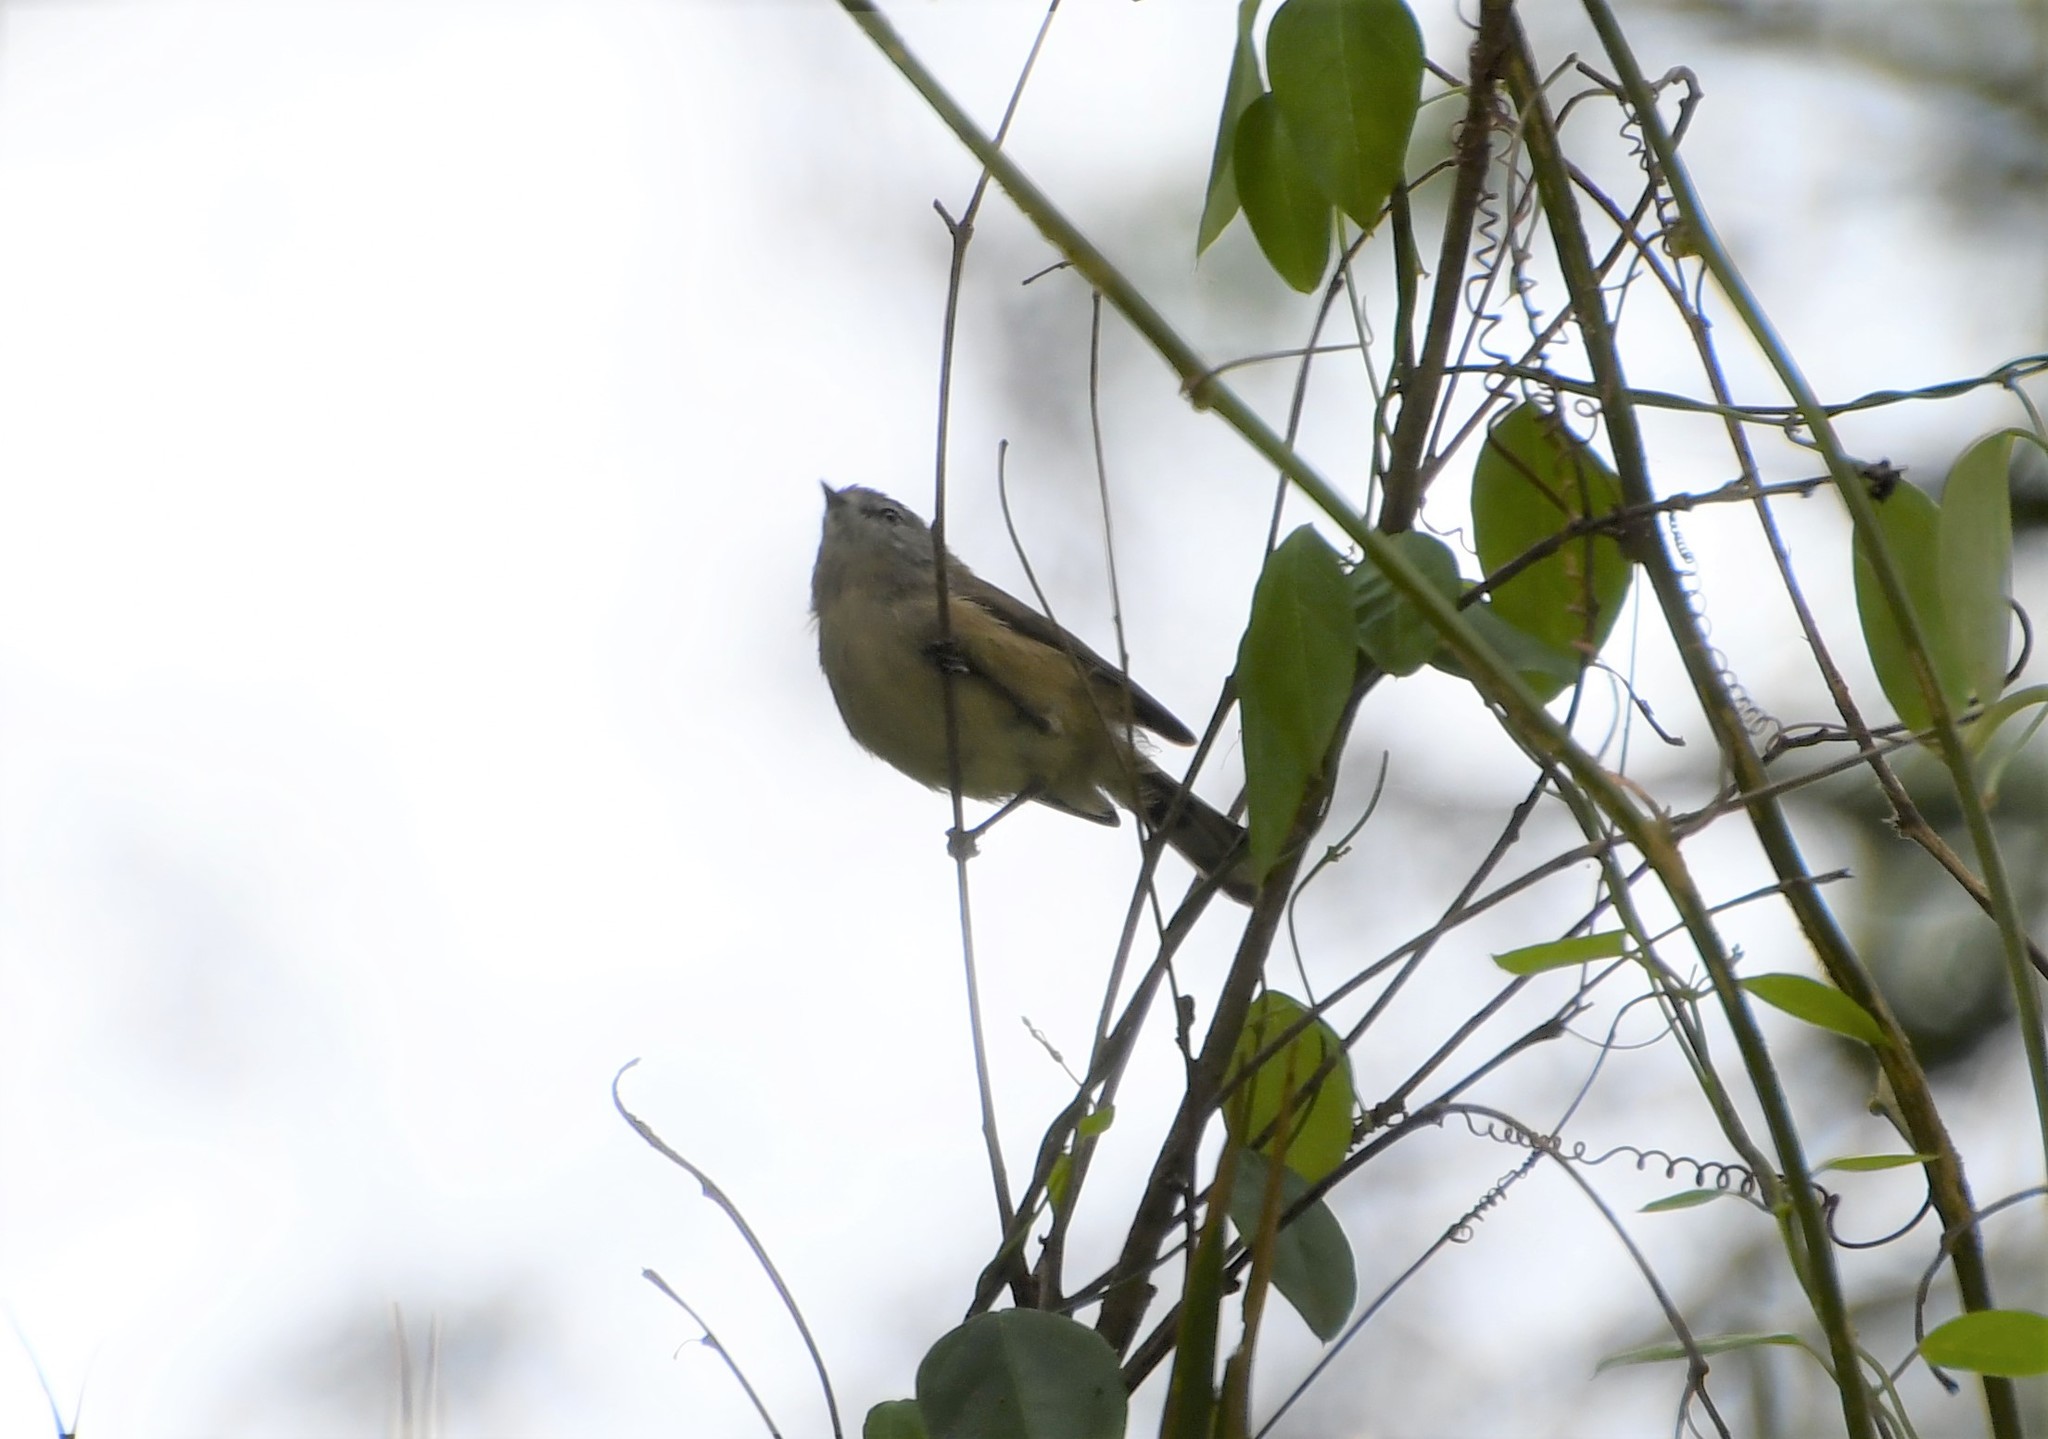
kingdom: Animalia
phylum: Chordata
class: Aves
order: Passeriformes
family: Acanthizidae
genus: Gerygone
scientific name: Gerygone mouki
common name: Brown gerygone
